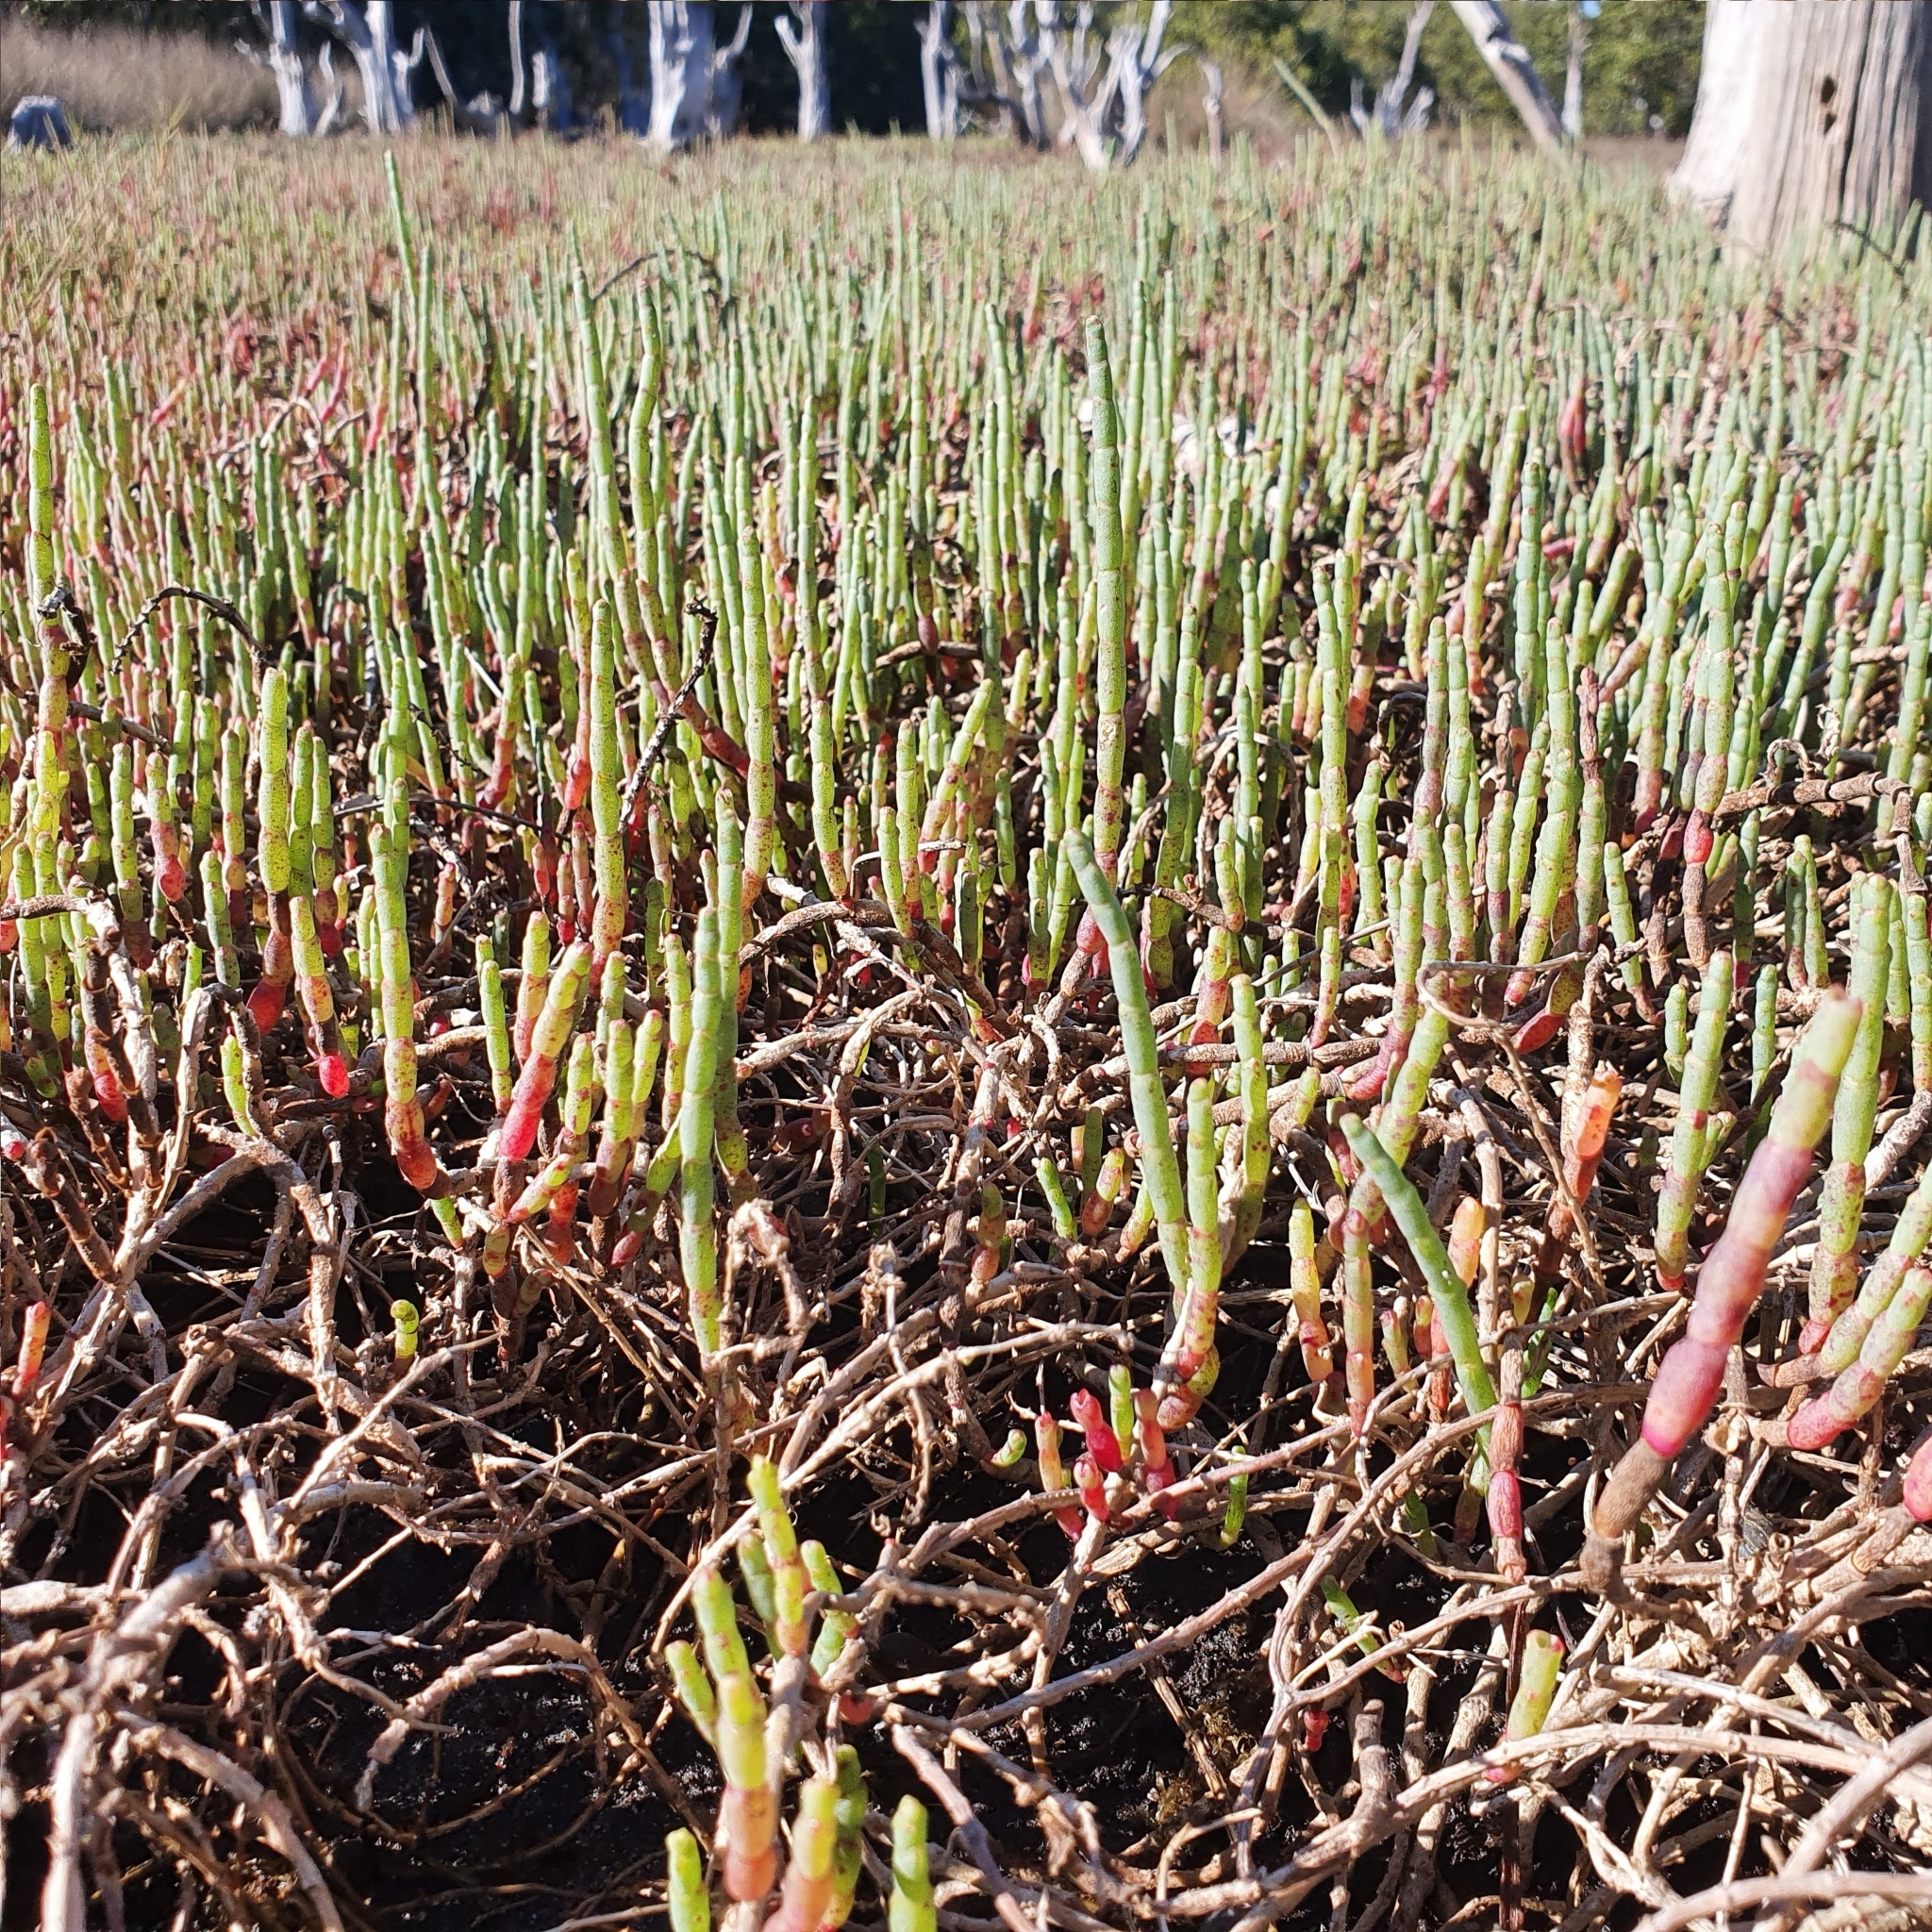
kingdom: Plantae
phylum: Tracheophyta
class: Magnoliopsida
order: Caryophyllales
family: Amaranthaceae
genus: Salicornia
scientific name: Salicornia quinqueflora
